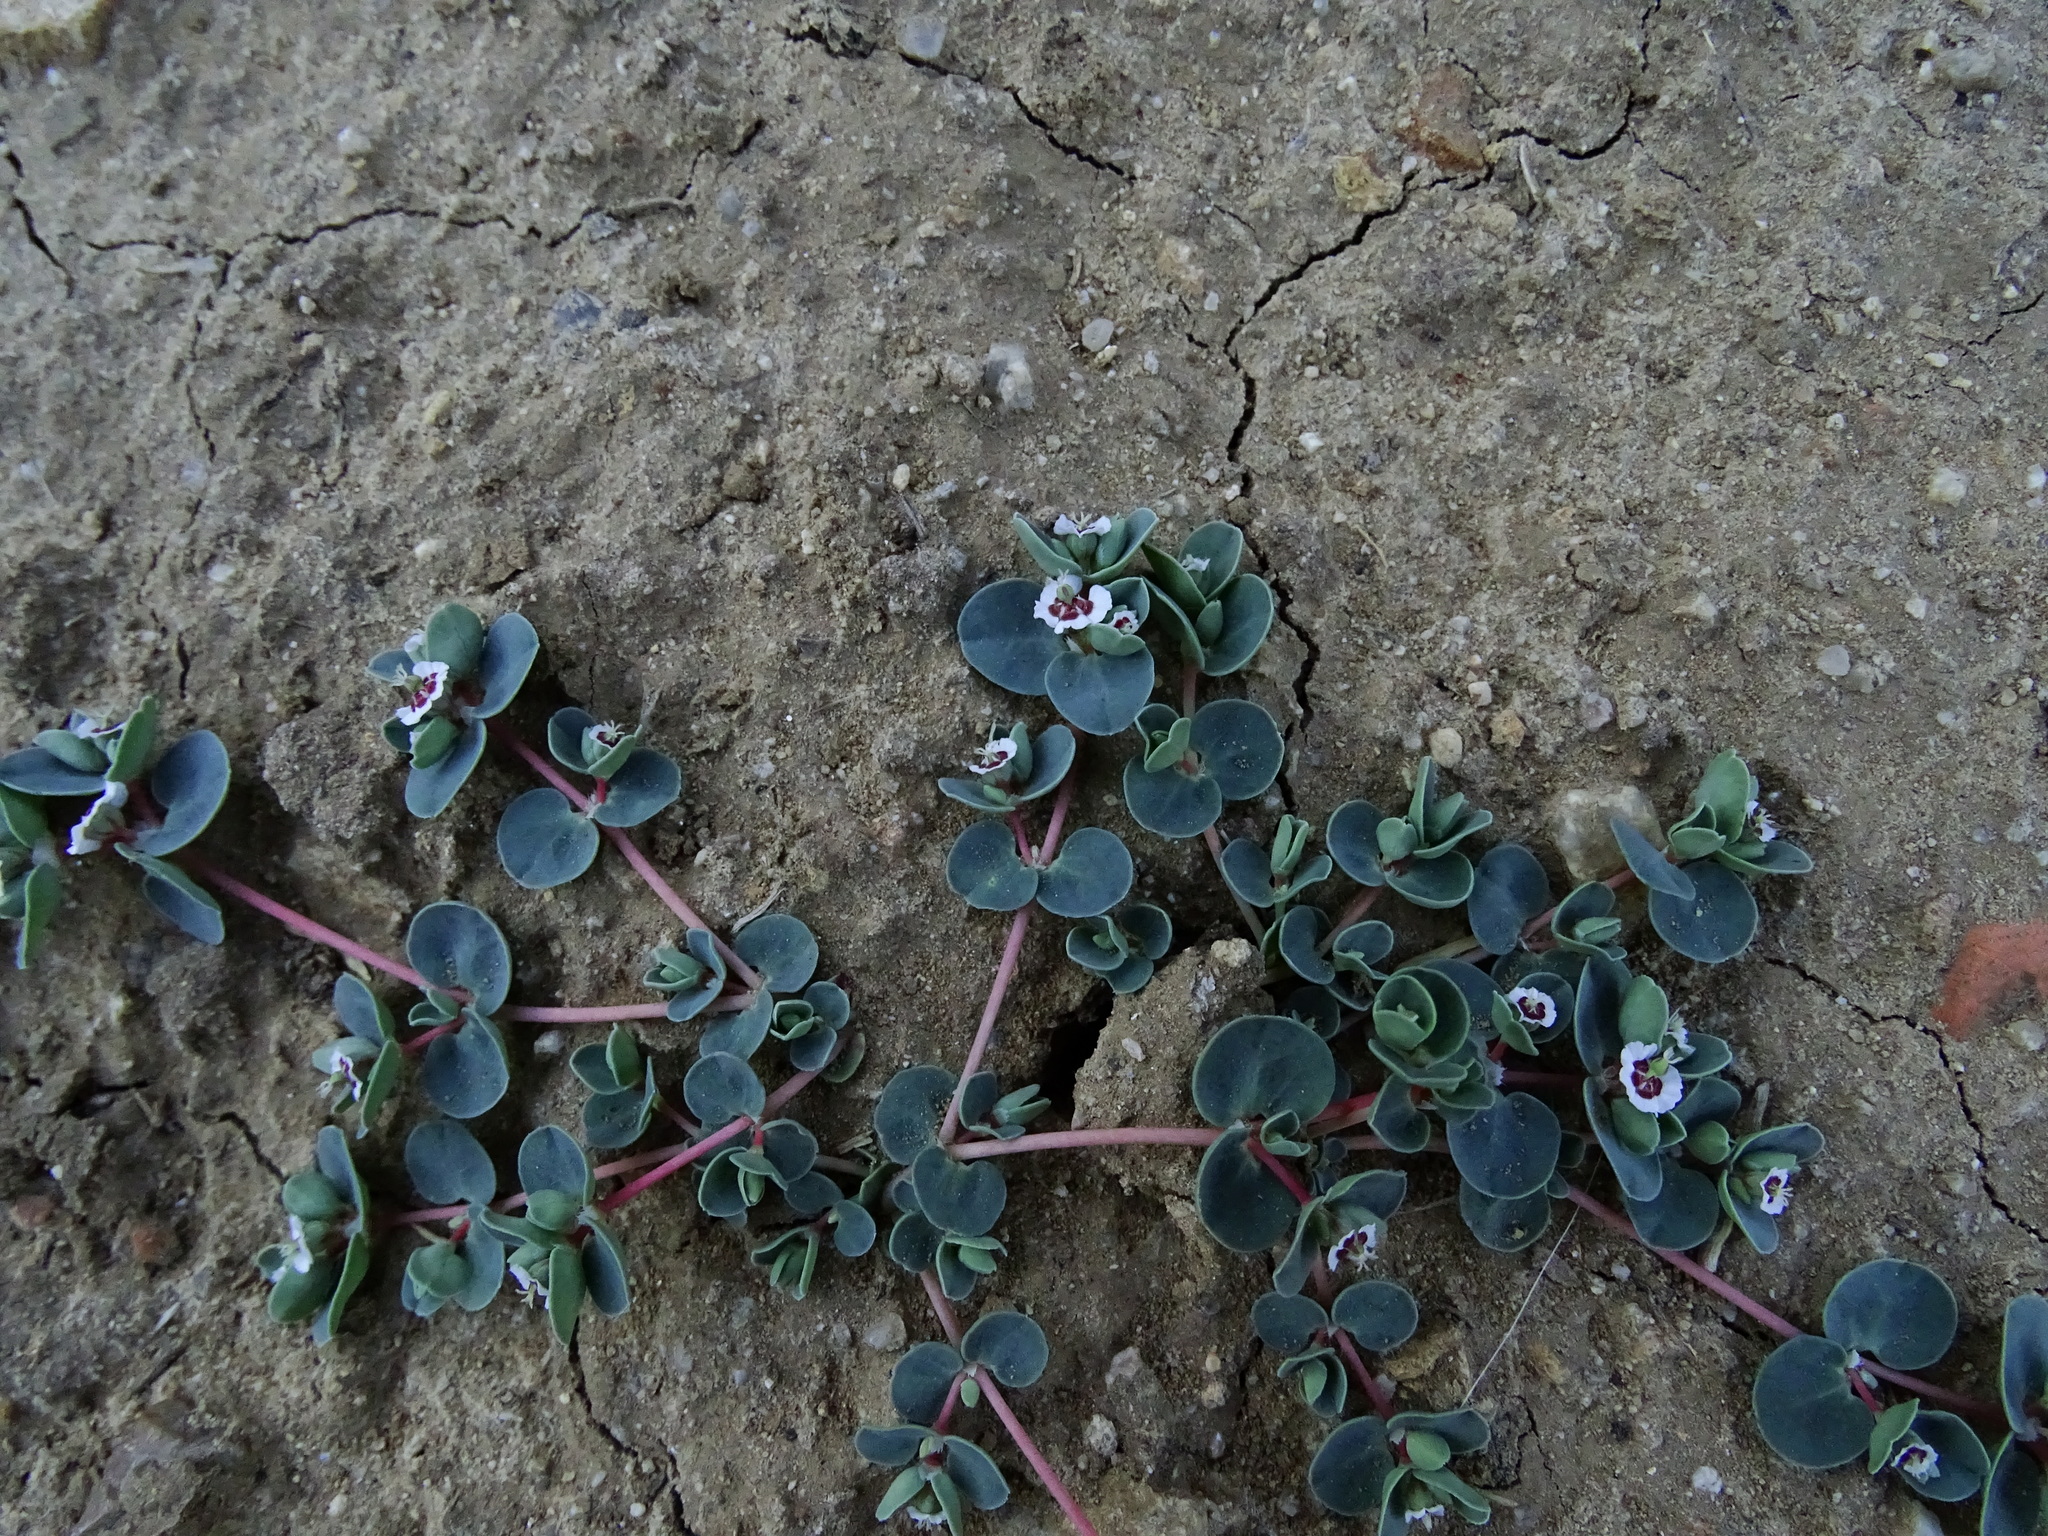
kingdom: Plantae
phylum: Tracheophyta
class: Magnoliopsida
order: Malpighiales
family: Euphorbiaceae
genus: Euphorbia
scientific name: Euphorbia albomarginata
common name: Whitemargin sandmat
